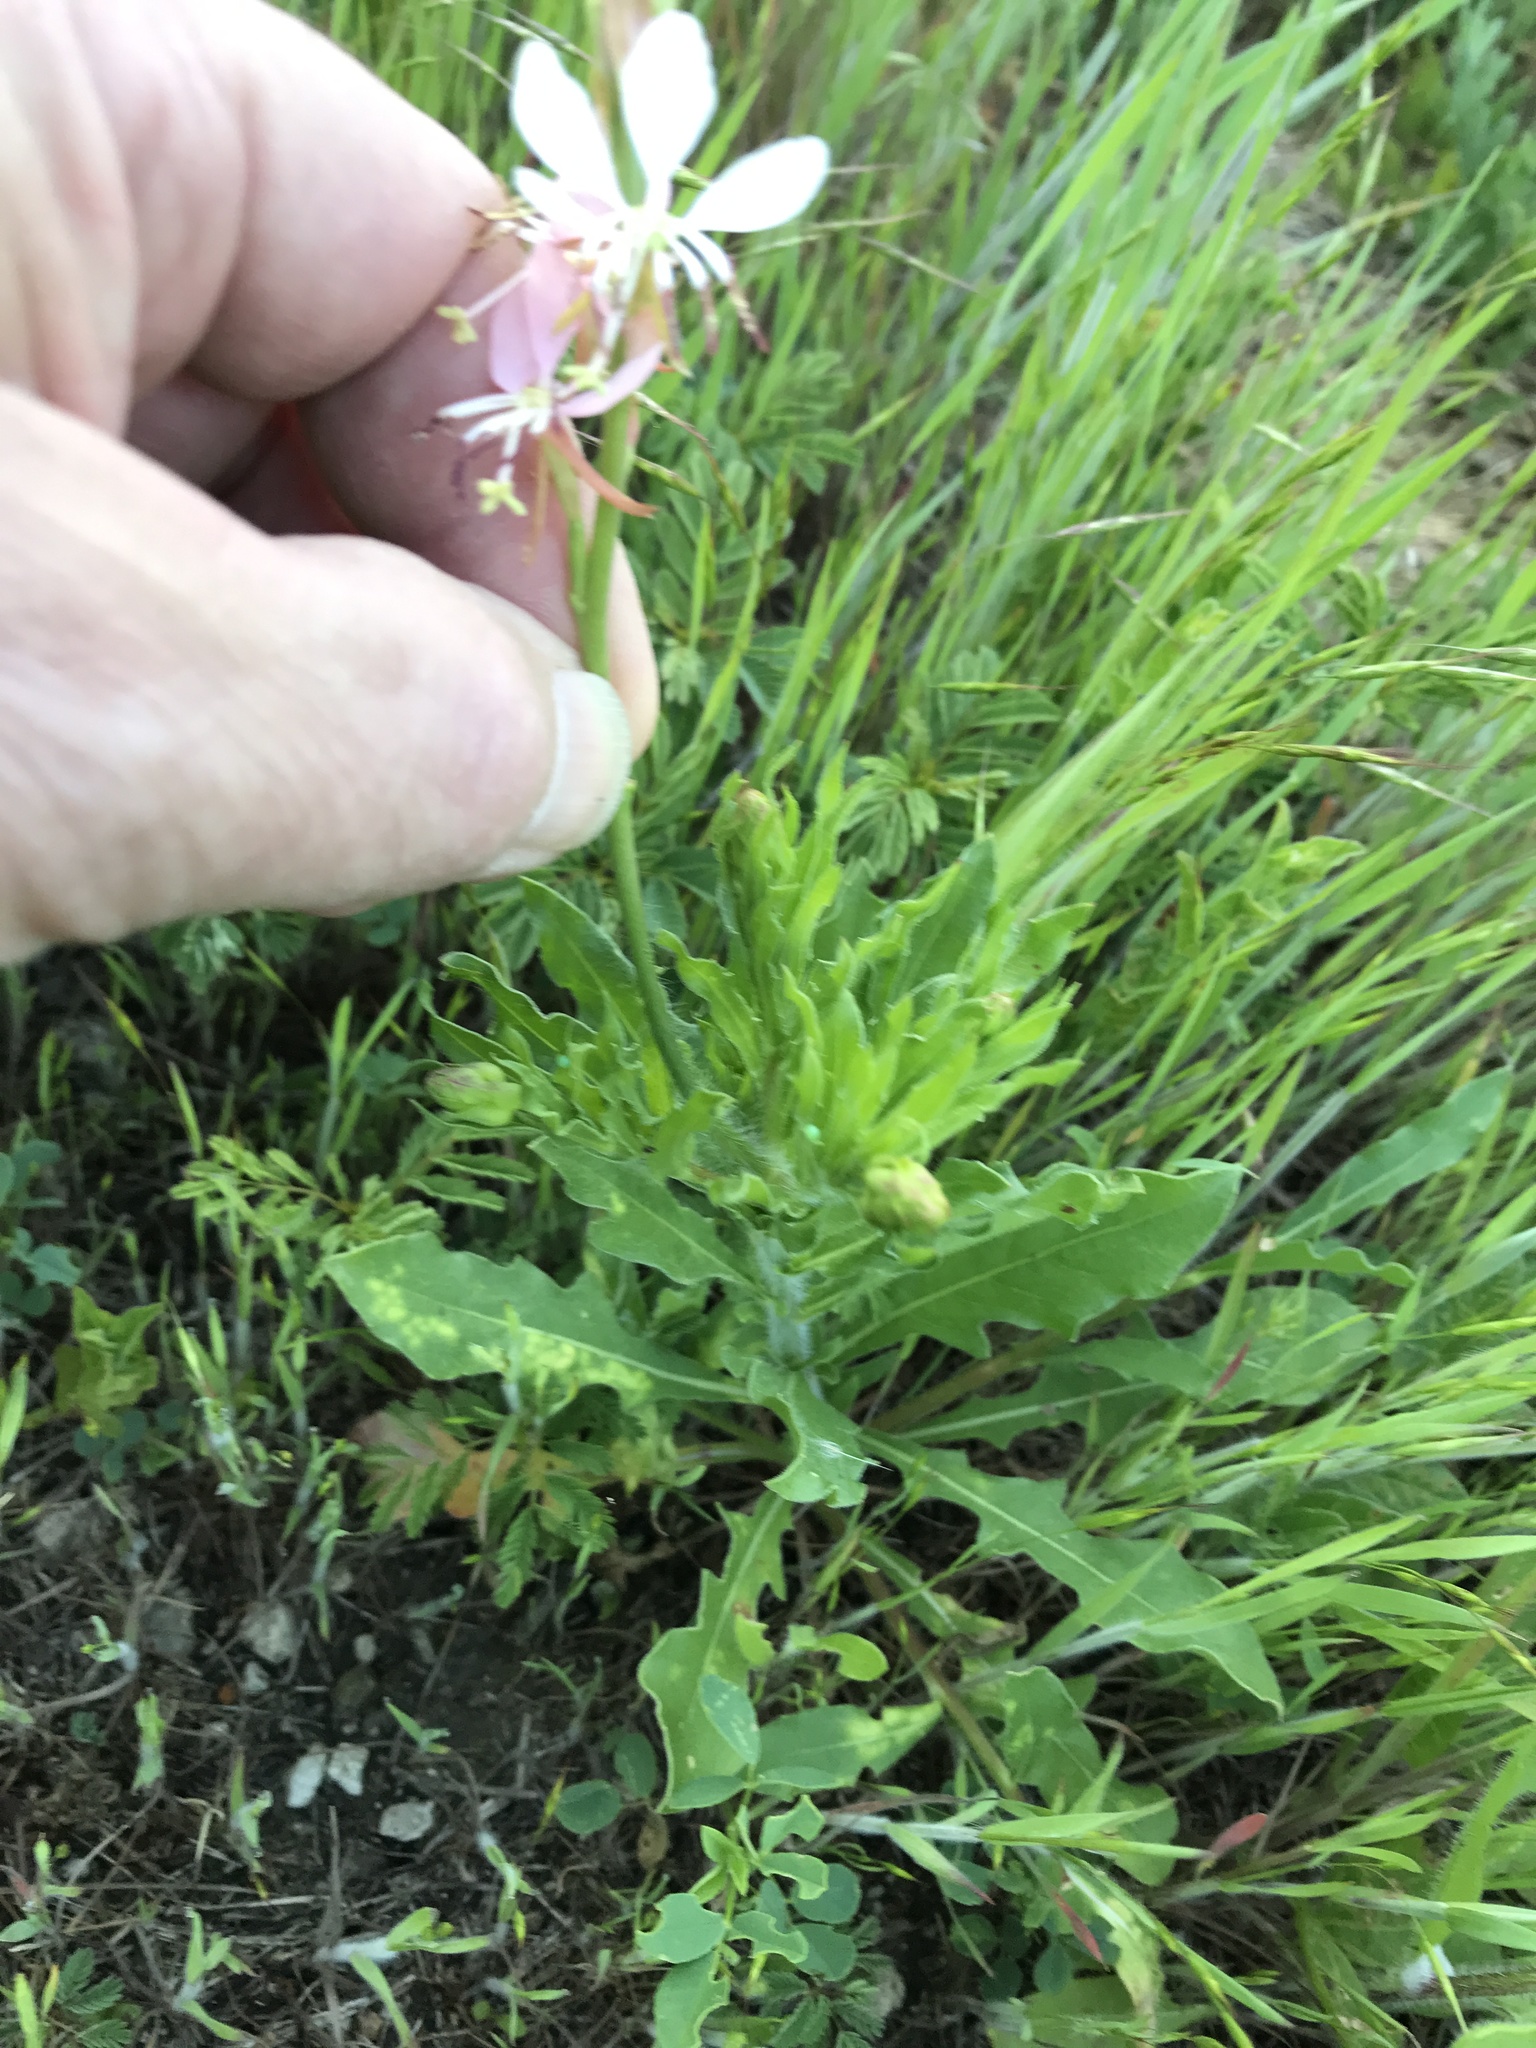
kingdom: Plantae
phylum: Tracheophyta
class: Magnoliopsida
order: Myrtales
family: Onagraceae
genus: Oenothera
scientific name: Oenothera suffulta
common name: Kisses
